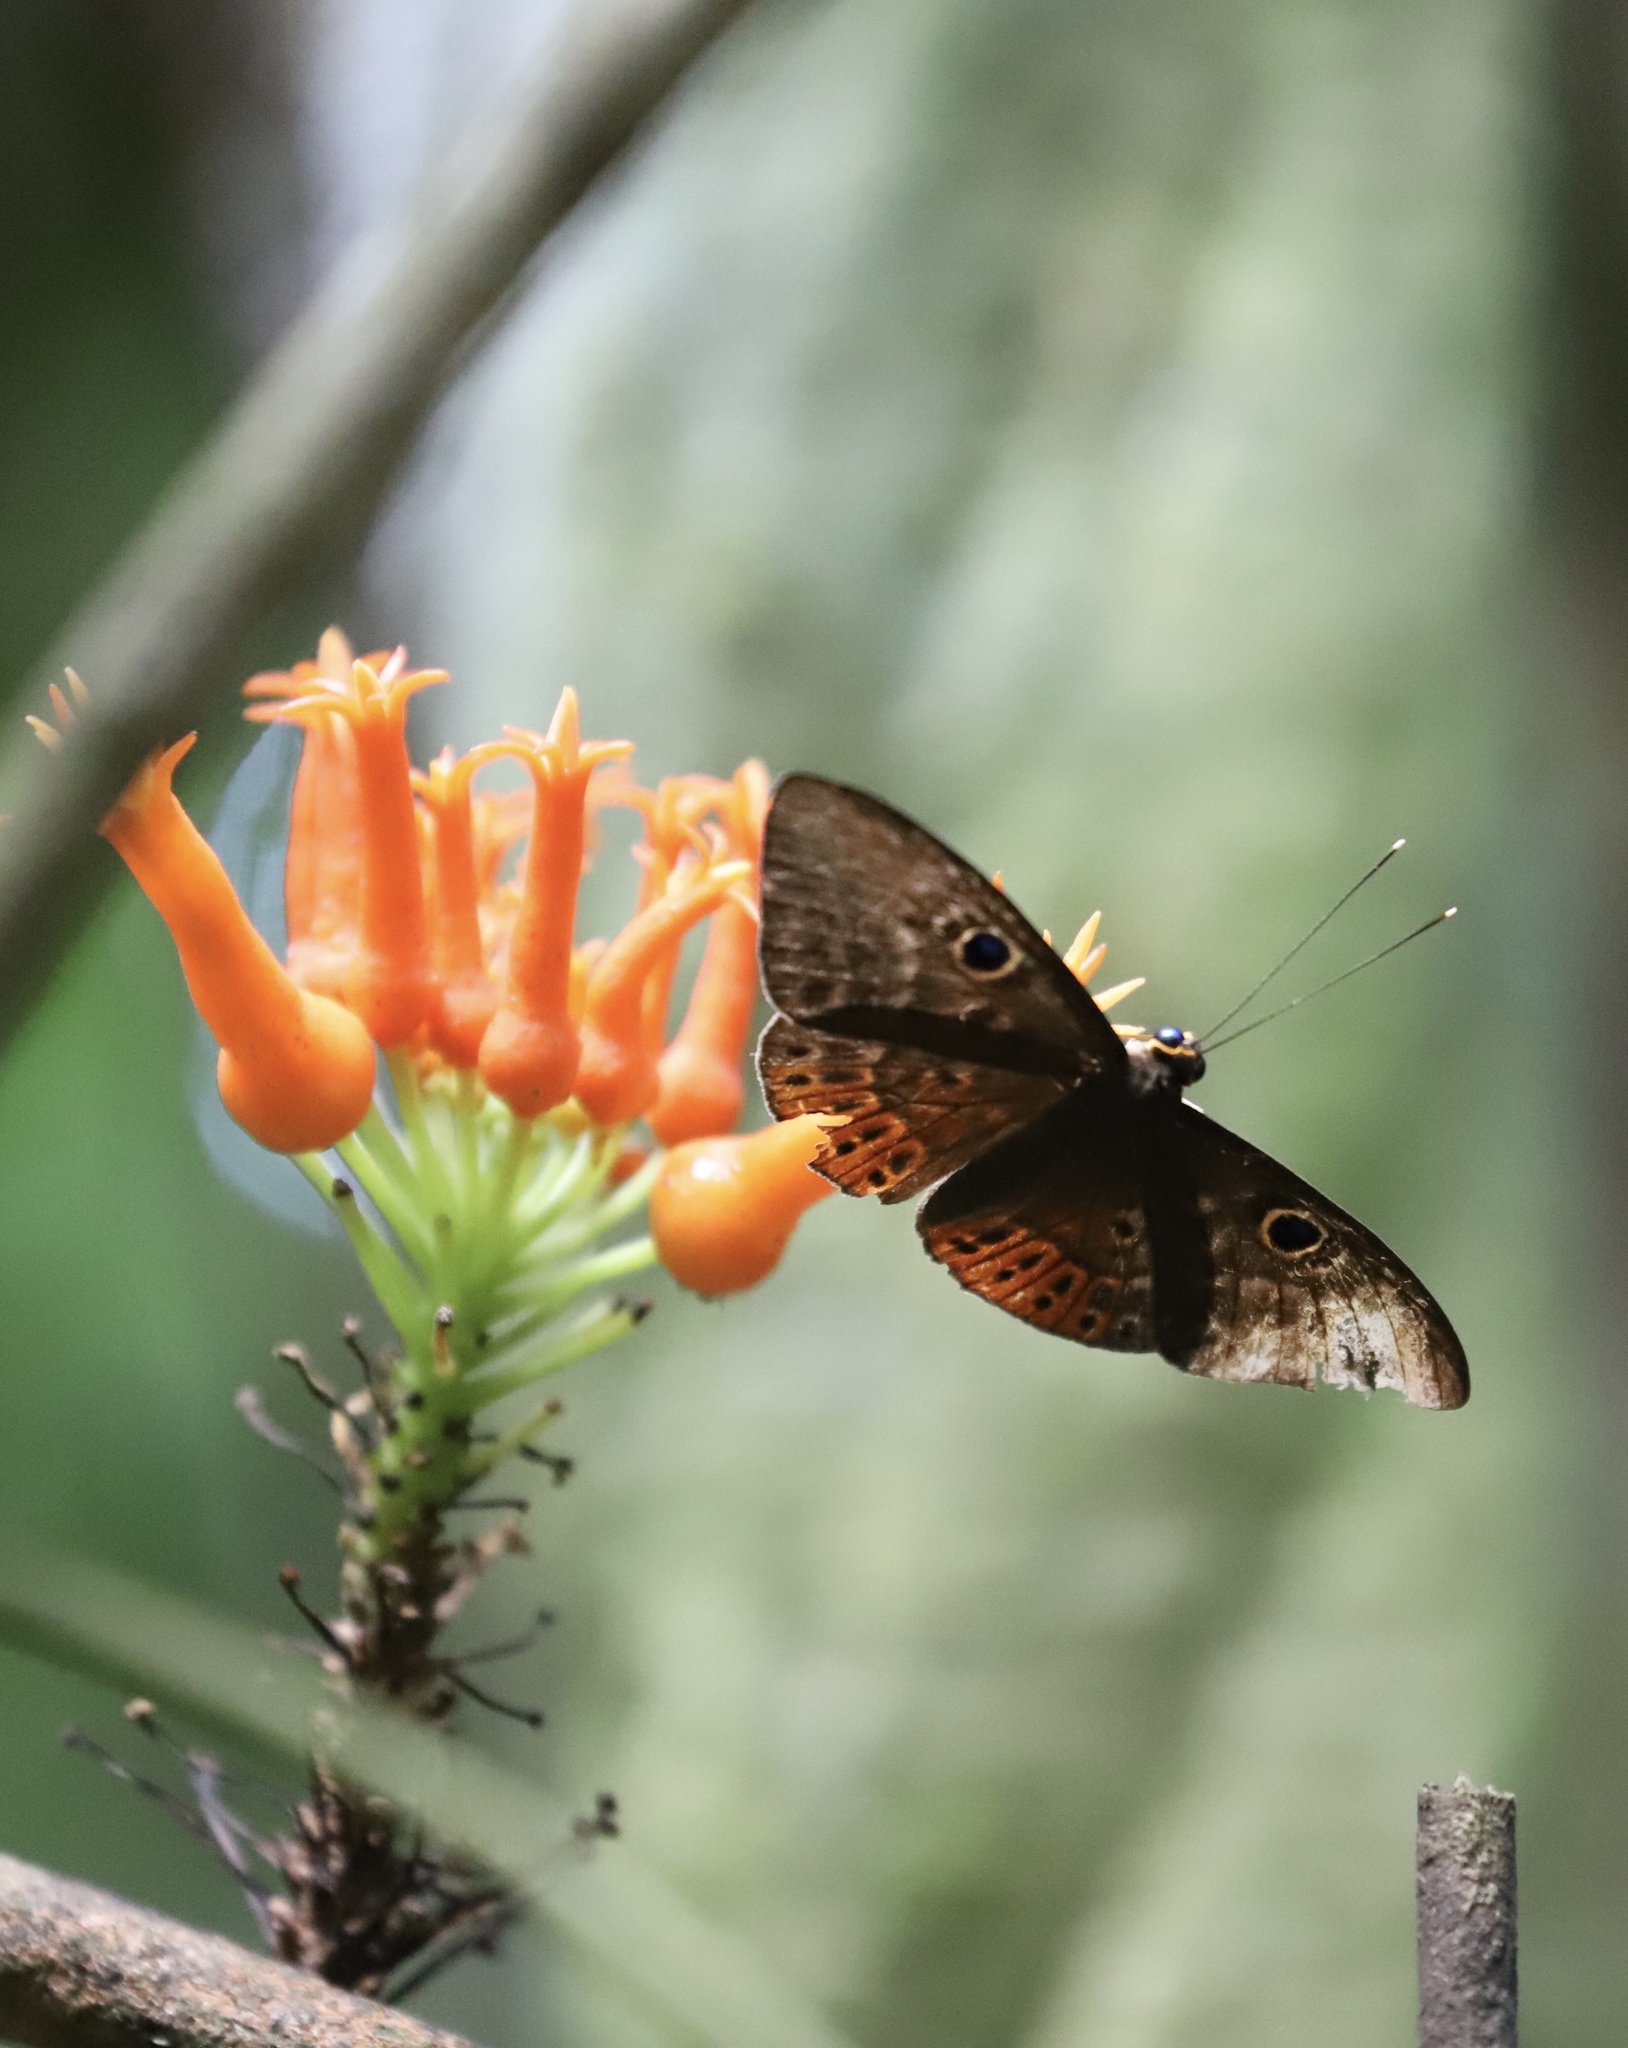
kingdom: Animalia
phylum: Cnidaria
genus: Eurybia
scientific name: Eurybia patrona
